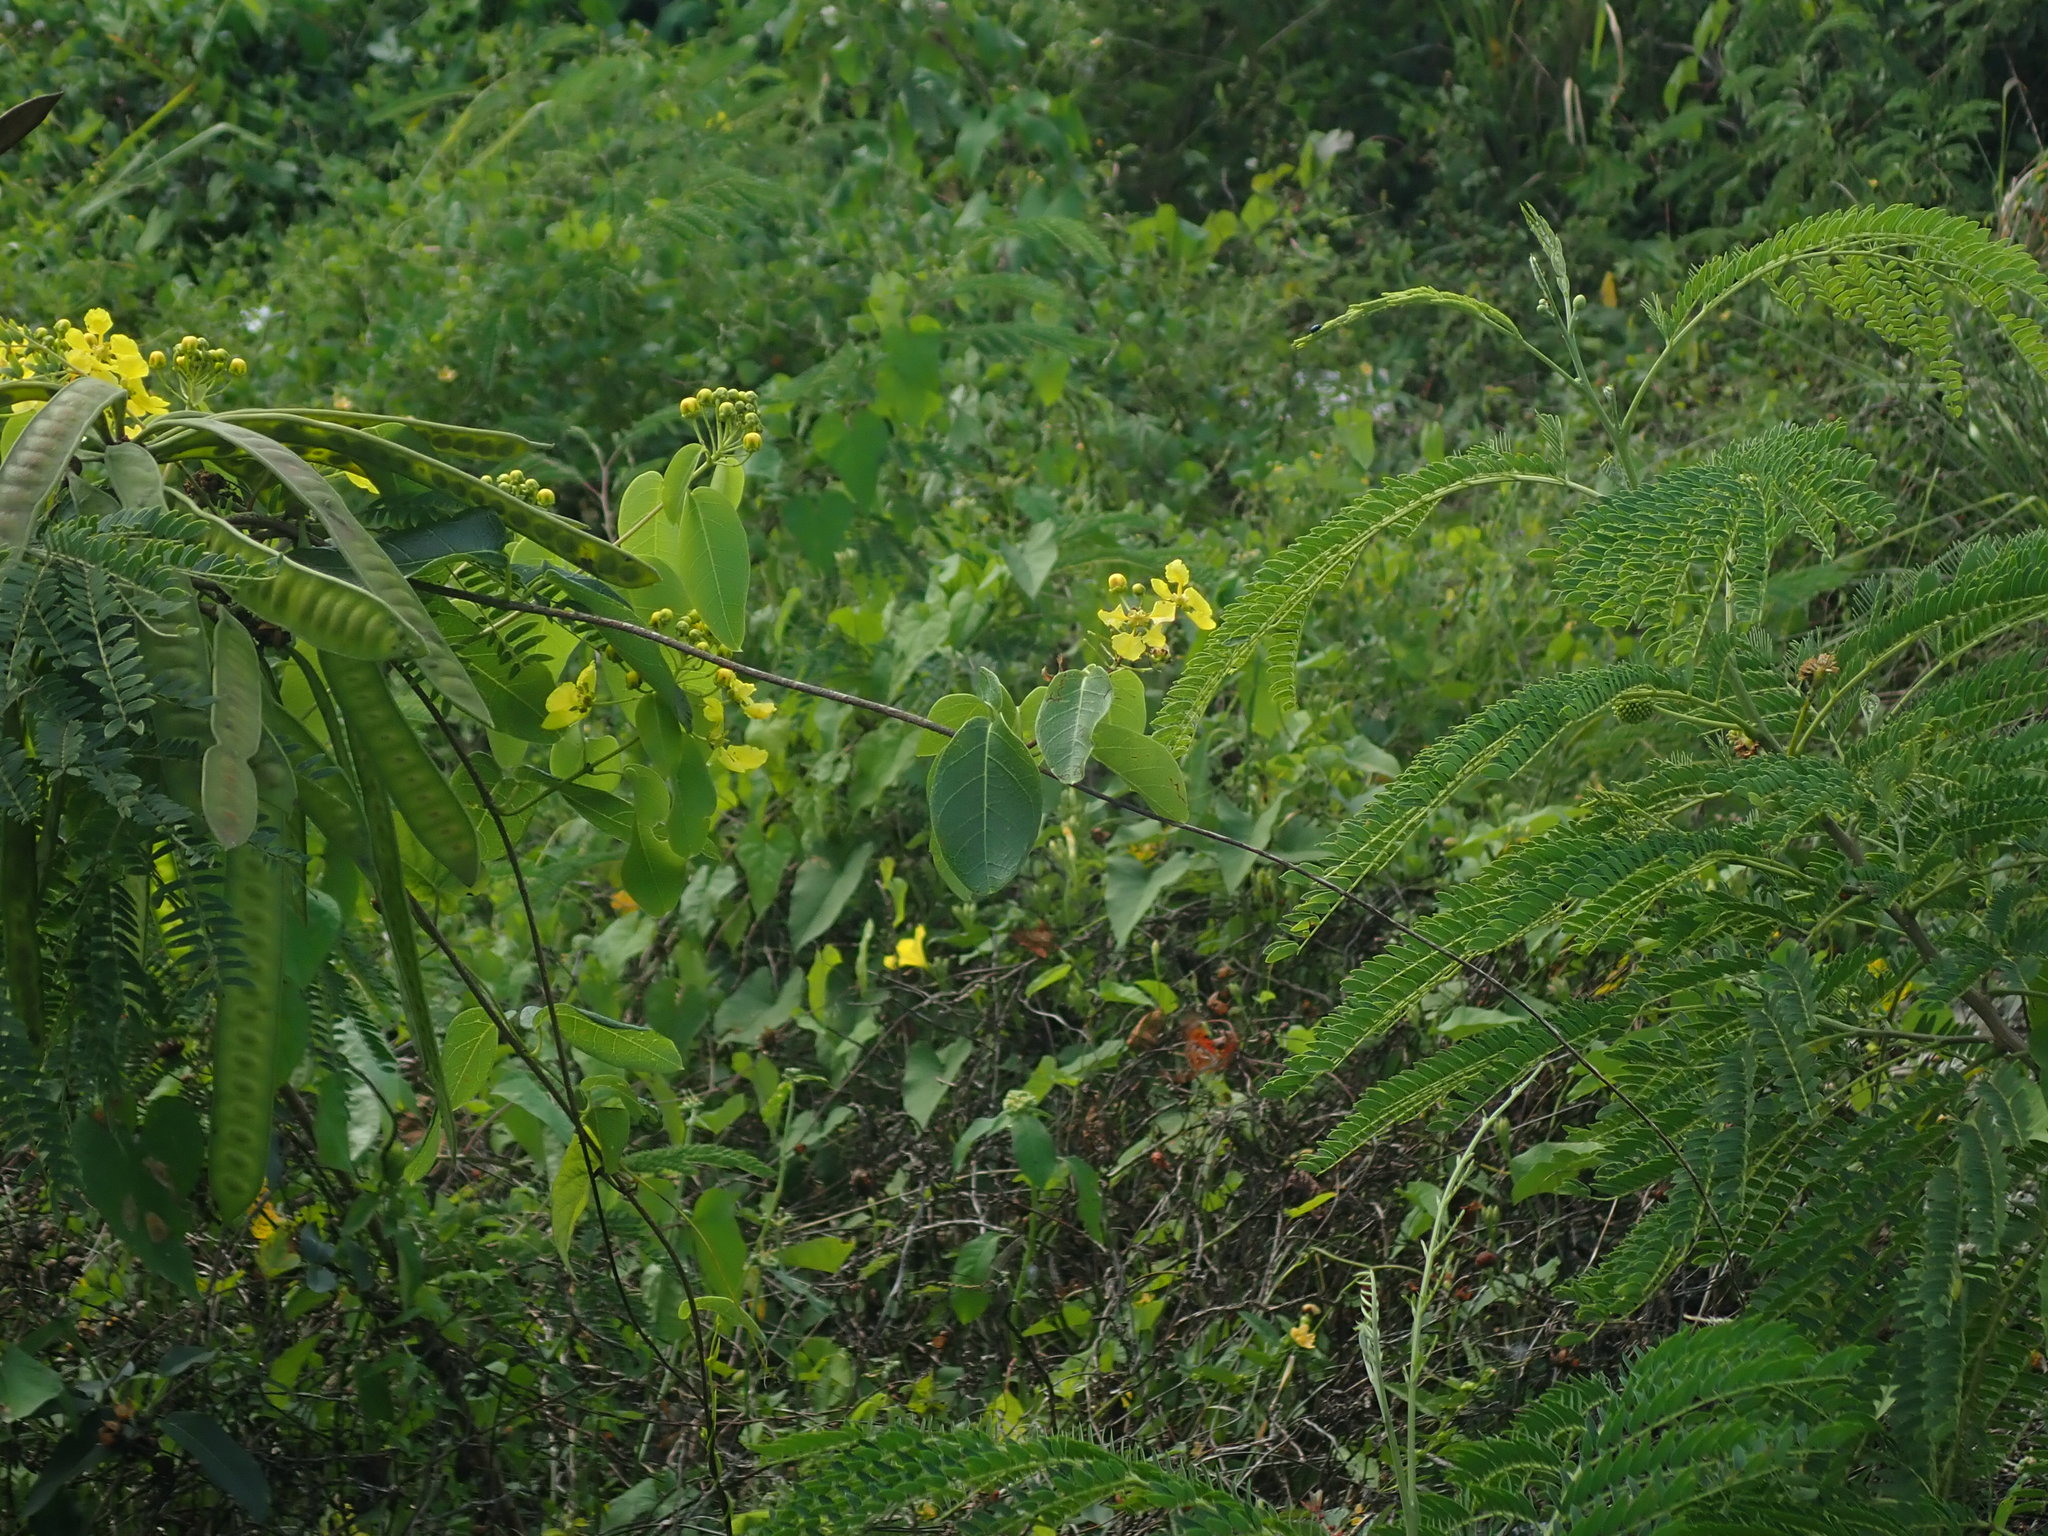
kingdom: Plantae
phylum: Tracheophyta
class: Magnoliopsida
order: Malpighiales
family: Malpighiaceae
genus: Stigmaphyllon
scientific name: Stigmaphyllon emarginatum
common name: Monarch amazonvine
